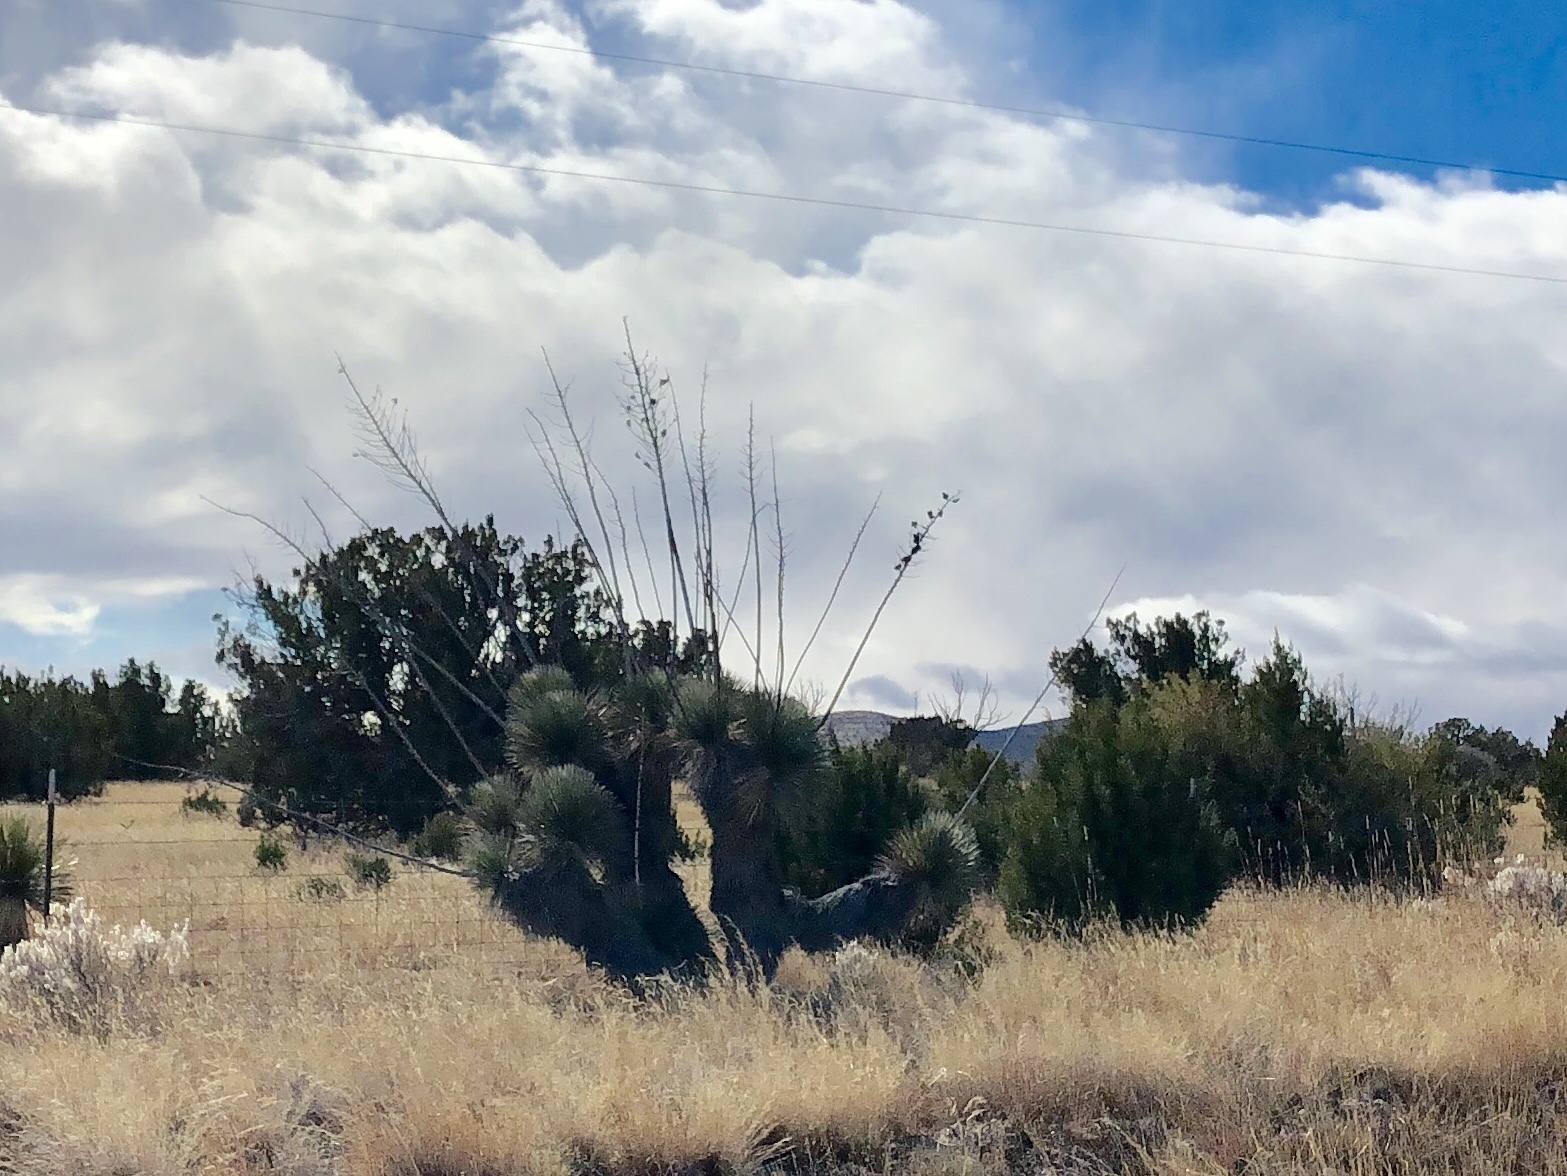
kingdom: Plantae
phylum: Tracheophyta
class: Liliopsida
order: Asparagales
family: Asparagaceae
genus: Yucca
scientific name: Yucca elata
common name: Palmella
